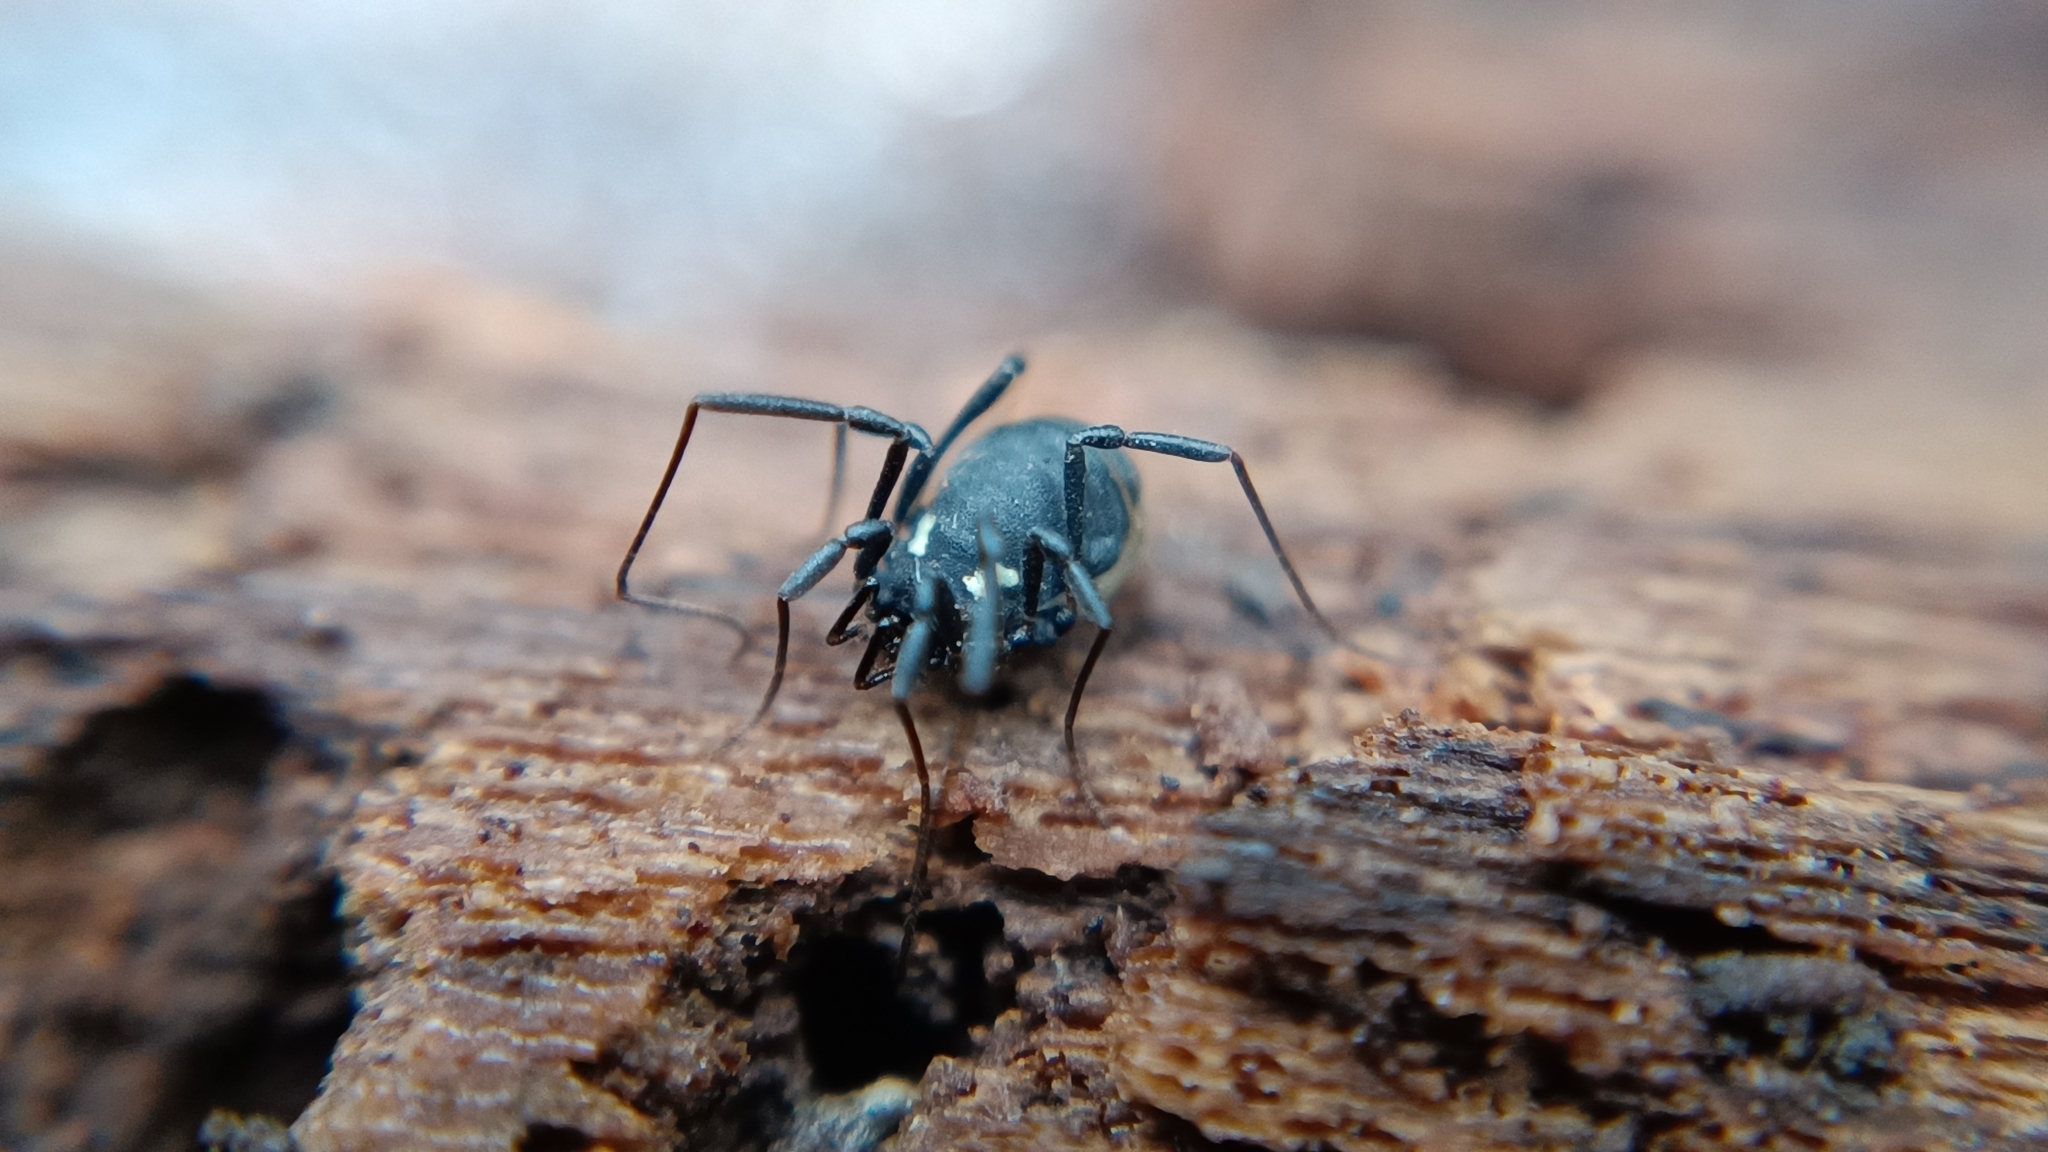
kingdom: Animalia
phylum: Arthropoda
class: Arachnida
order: Opiliones
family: Nemastomatidae
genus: Nemastoma
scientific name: Nemastoma bimaculatum
